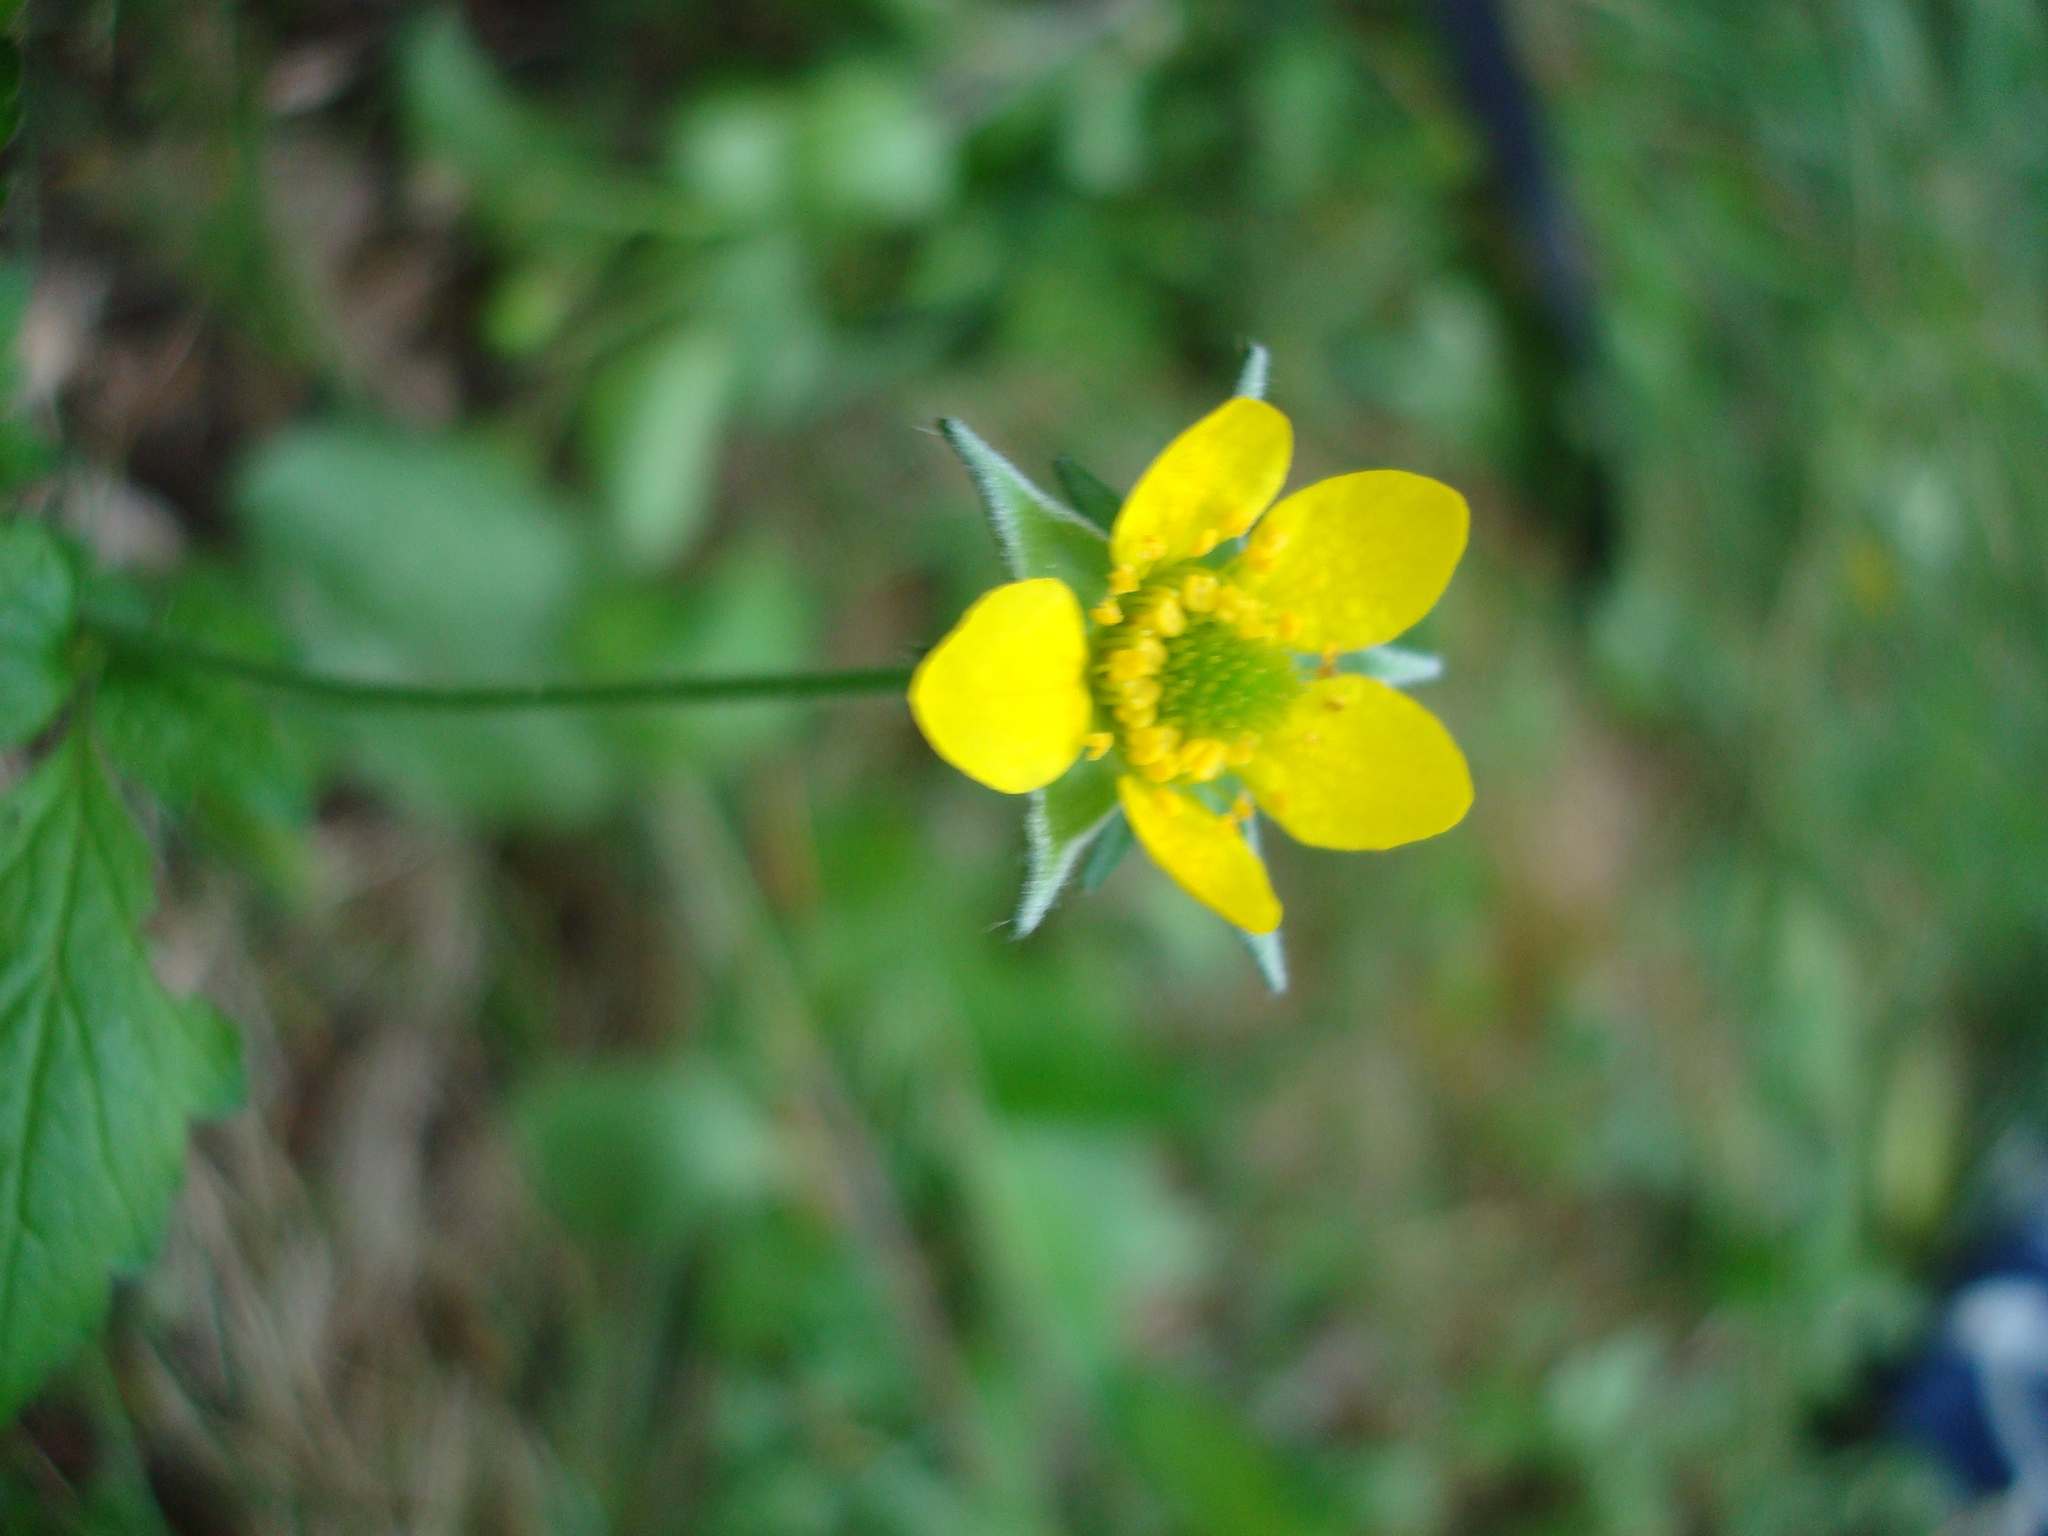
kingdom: Plantae
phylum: Tracheophyta
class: Magnoliopsida
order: Rosales
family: Rosaceae
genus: Geum
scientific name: Geum urbanum
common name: Wood avens
